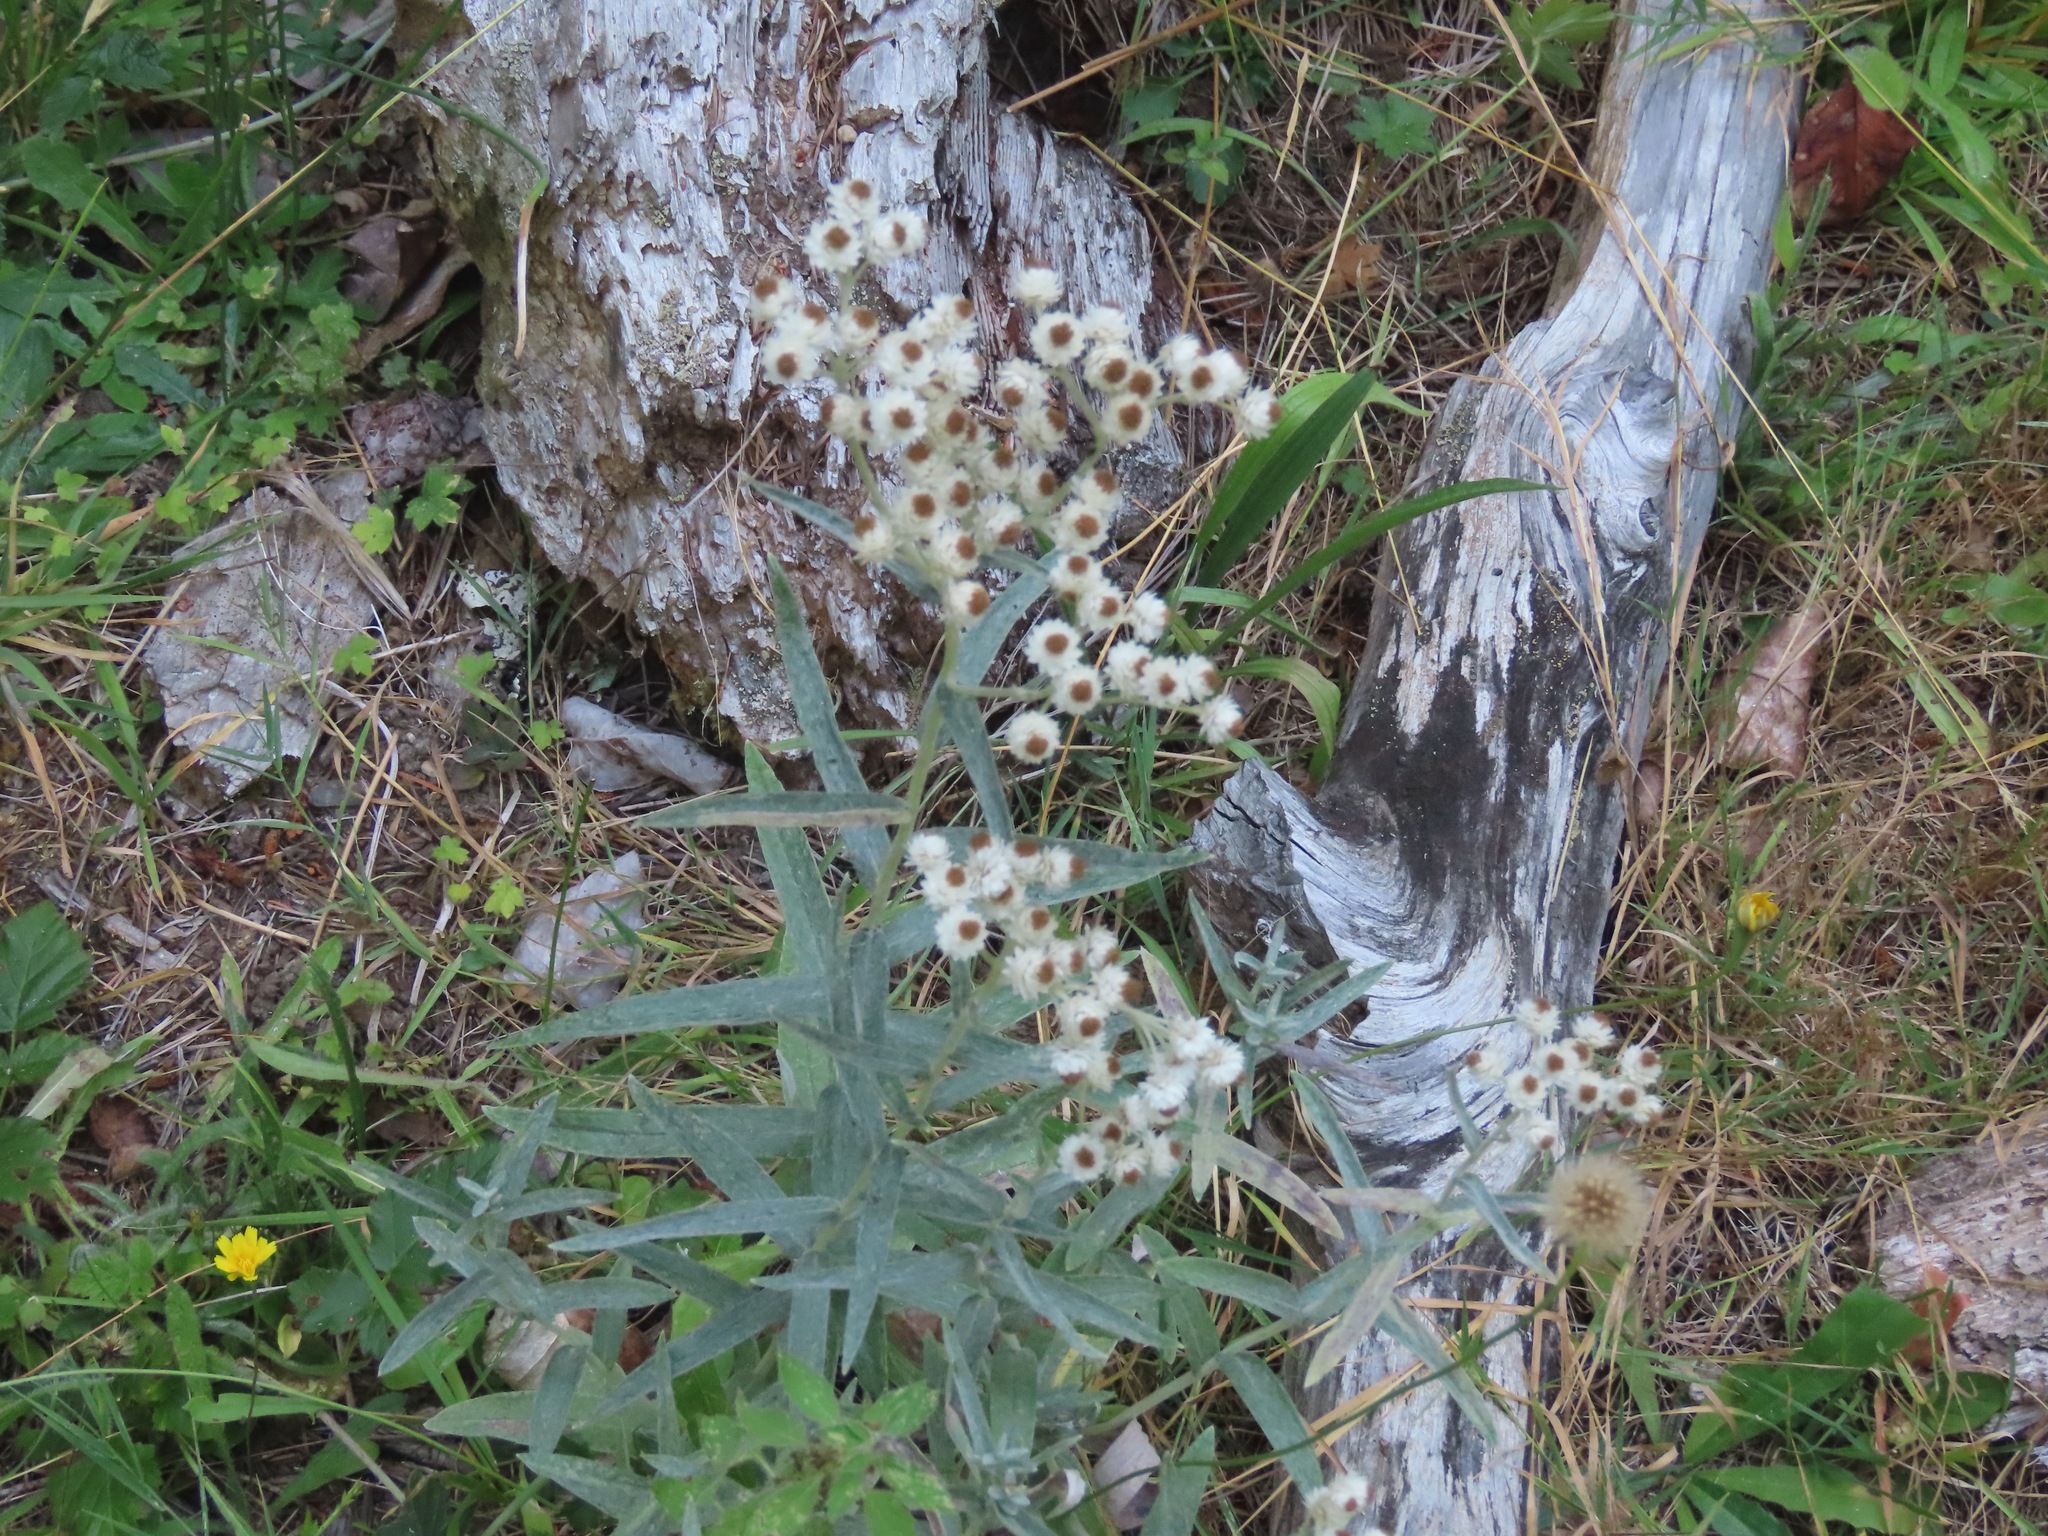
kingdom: Plantae
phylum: Tracheophyta
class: Magnoliopsida
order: Asterales
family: Asteraceae
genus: Anaphalis
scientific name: Anaphalis margaritacea
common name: Pearly everlasting
